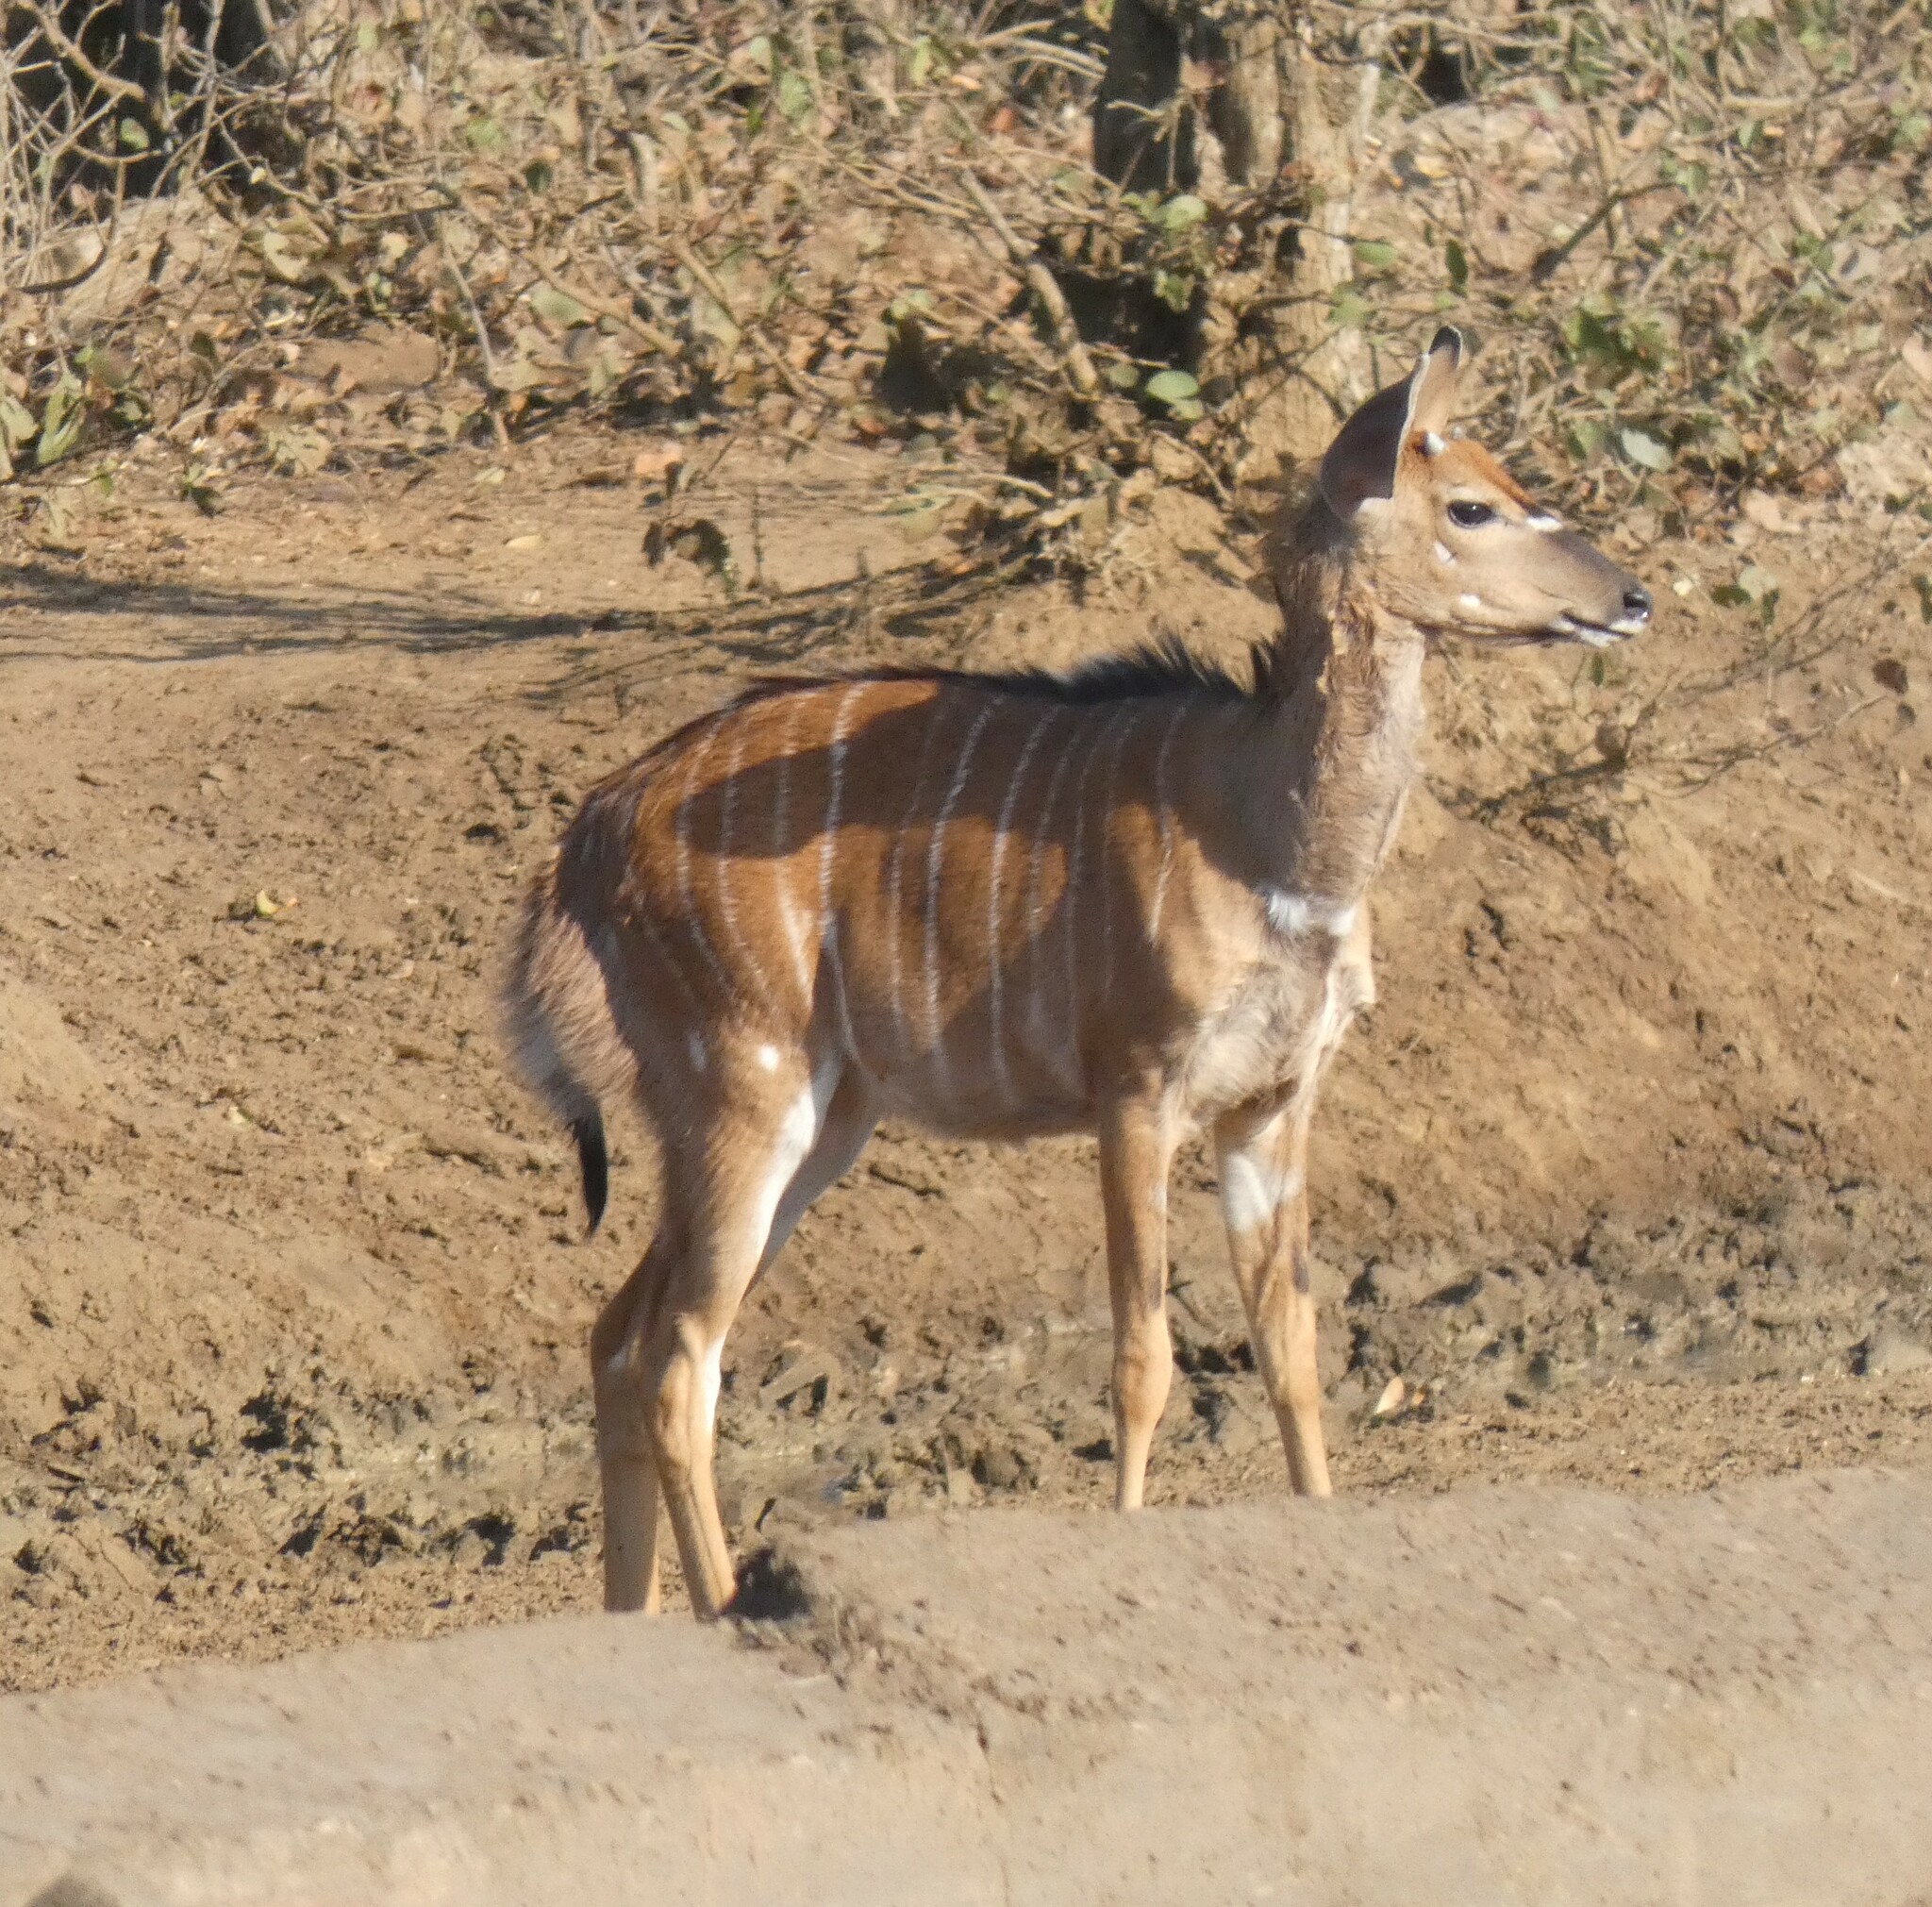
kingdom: Animalia
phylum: Chordata
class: Mammalia
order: Artiodactyla
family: Bovidae
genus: Tragelaphus
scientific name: Tragelaphus angasii
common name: Nyala
